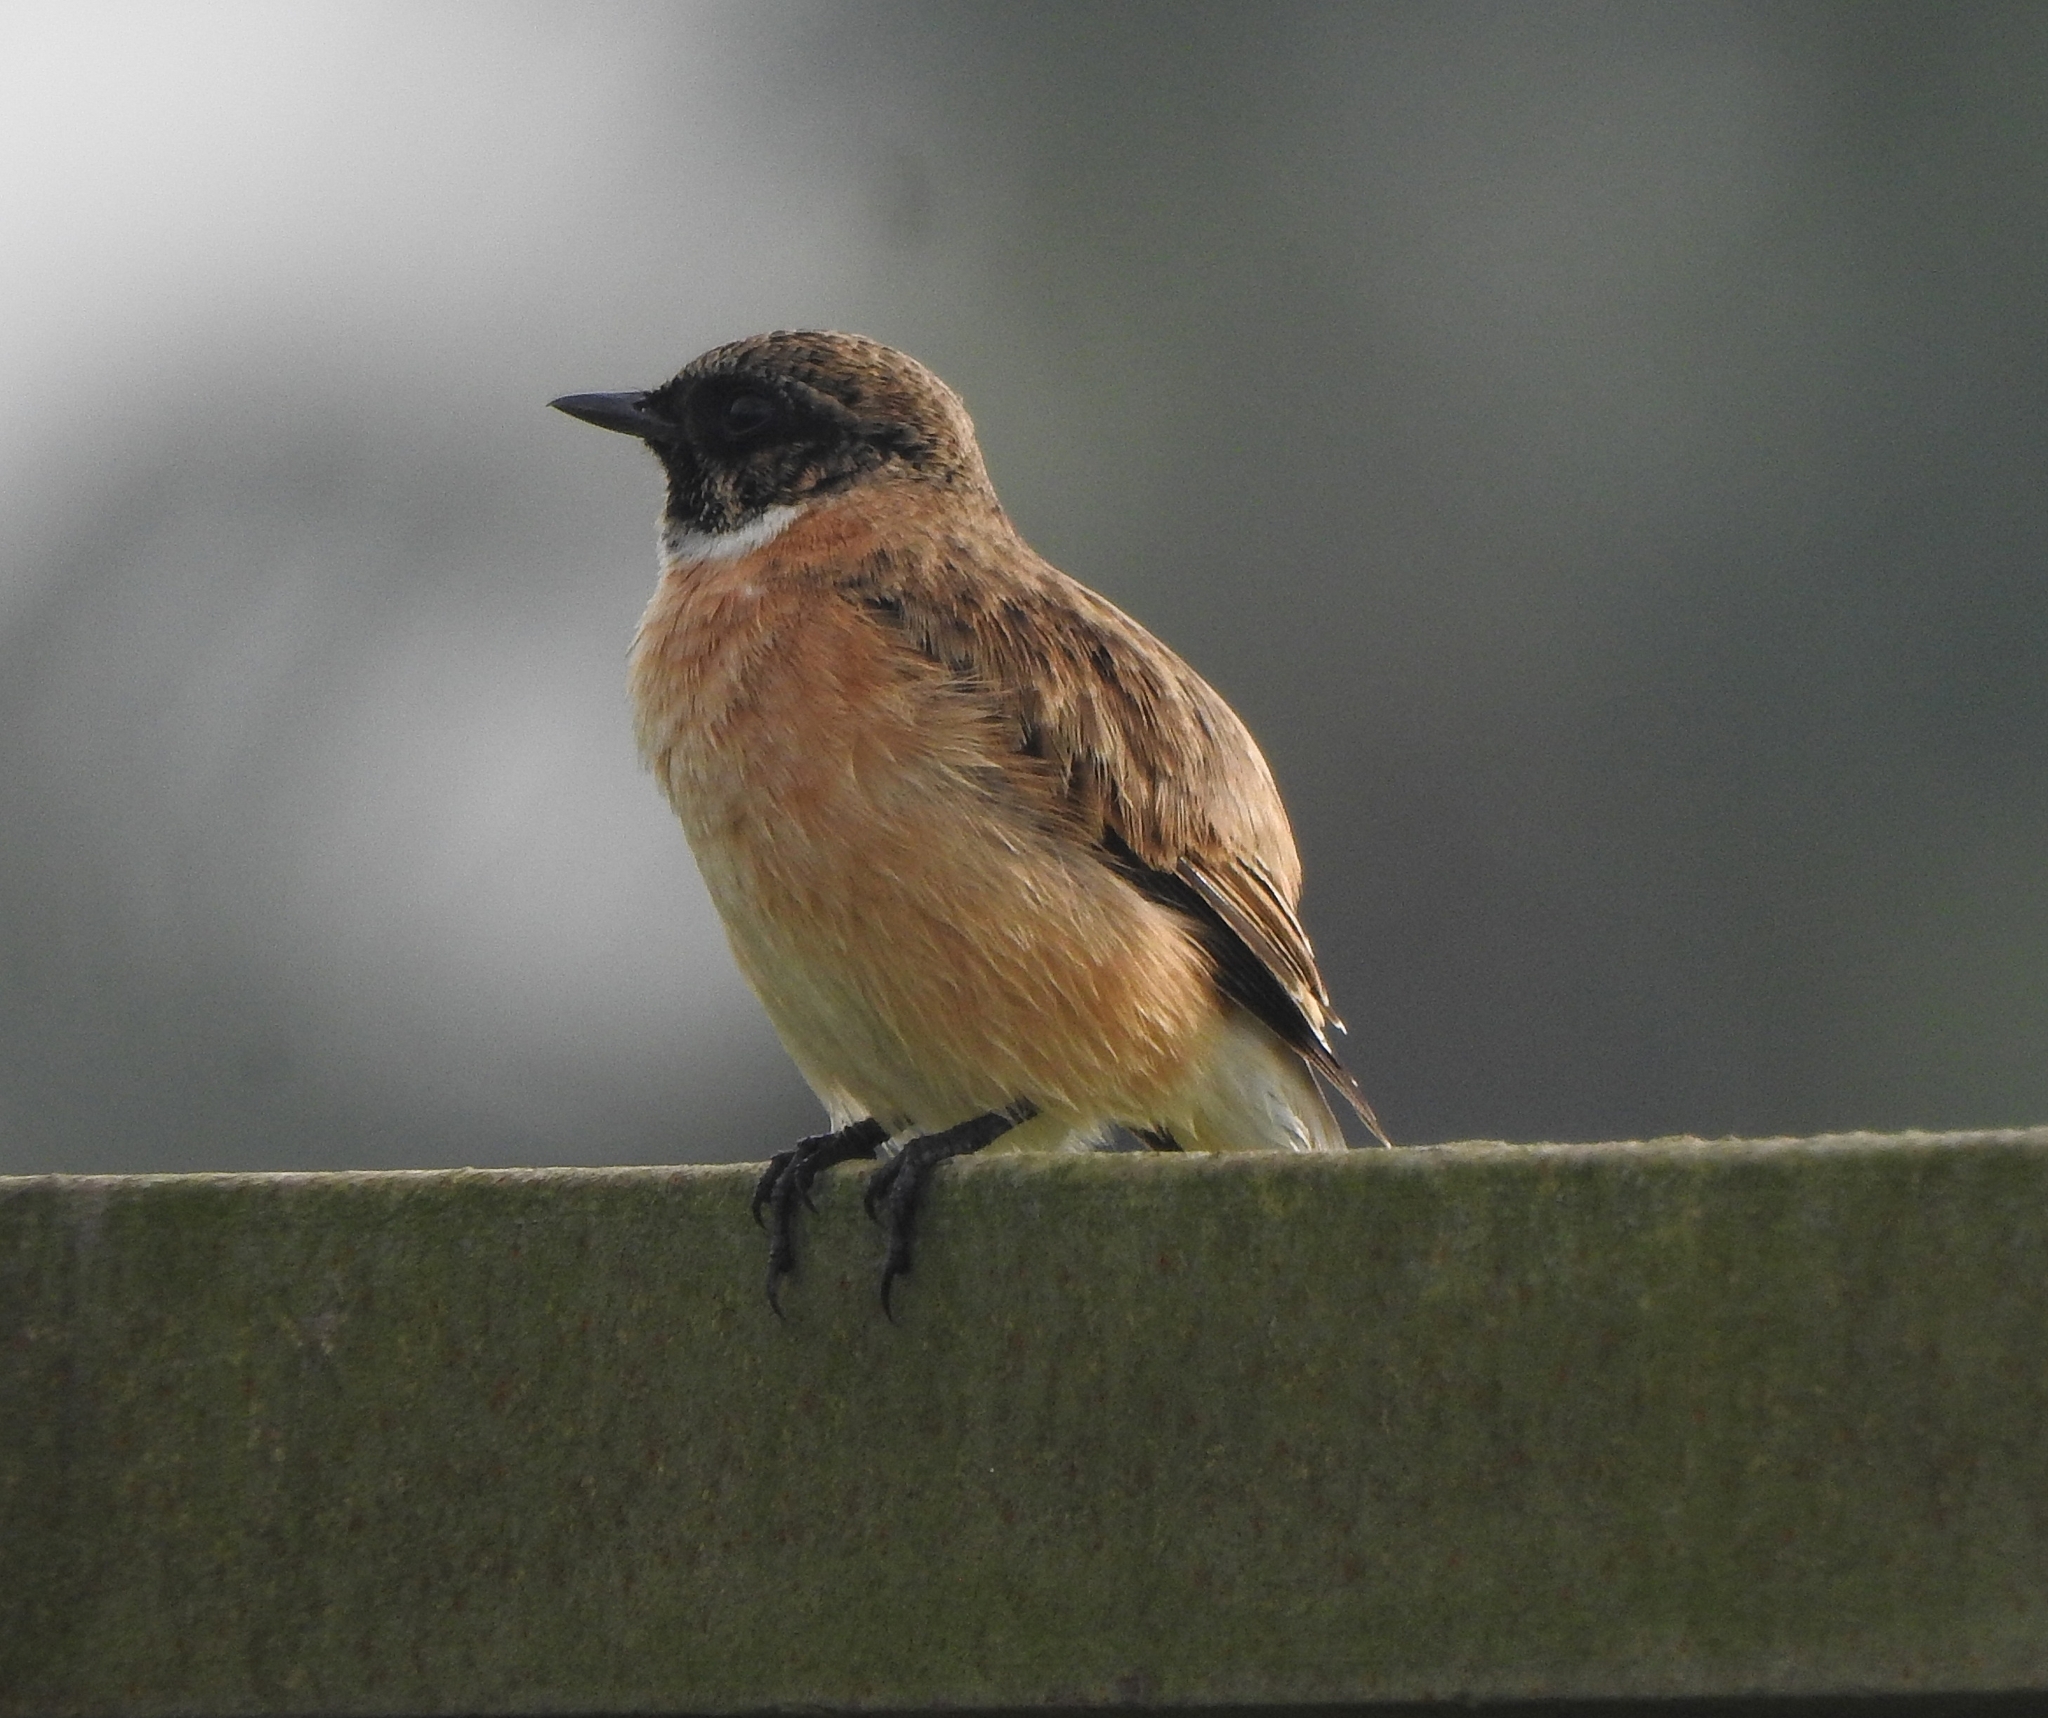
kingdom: Animalia
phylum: Chordata
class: Aves
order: Passeriformes
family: Muscicapidae
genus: Saxicola
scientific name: Saxicola maurus
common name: Siberian stonechat
